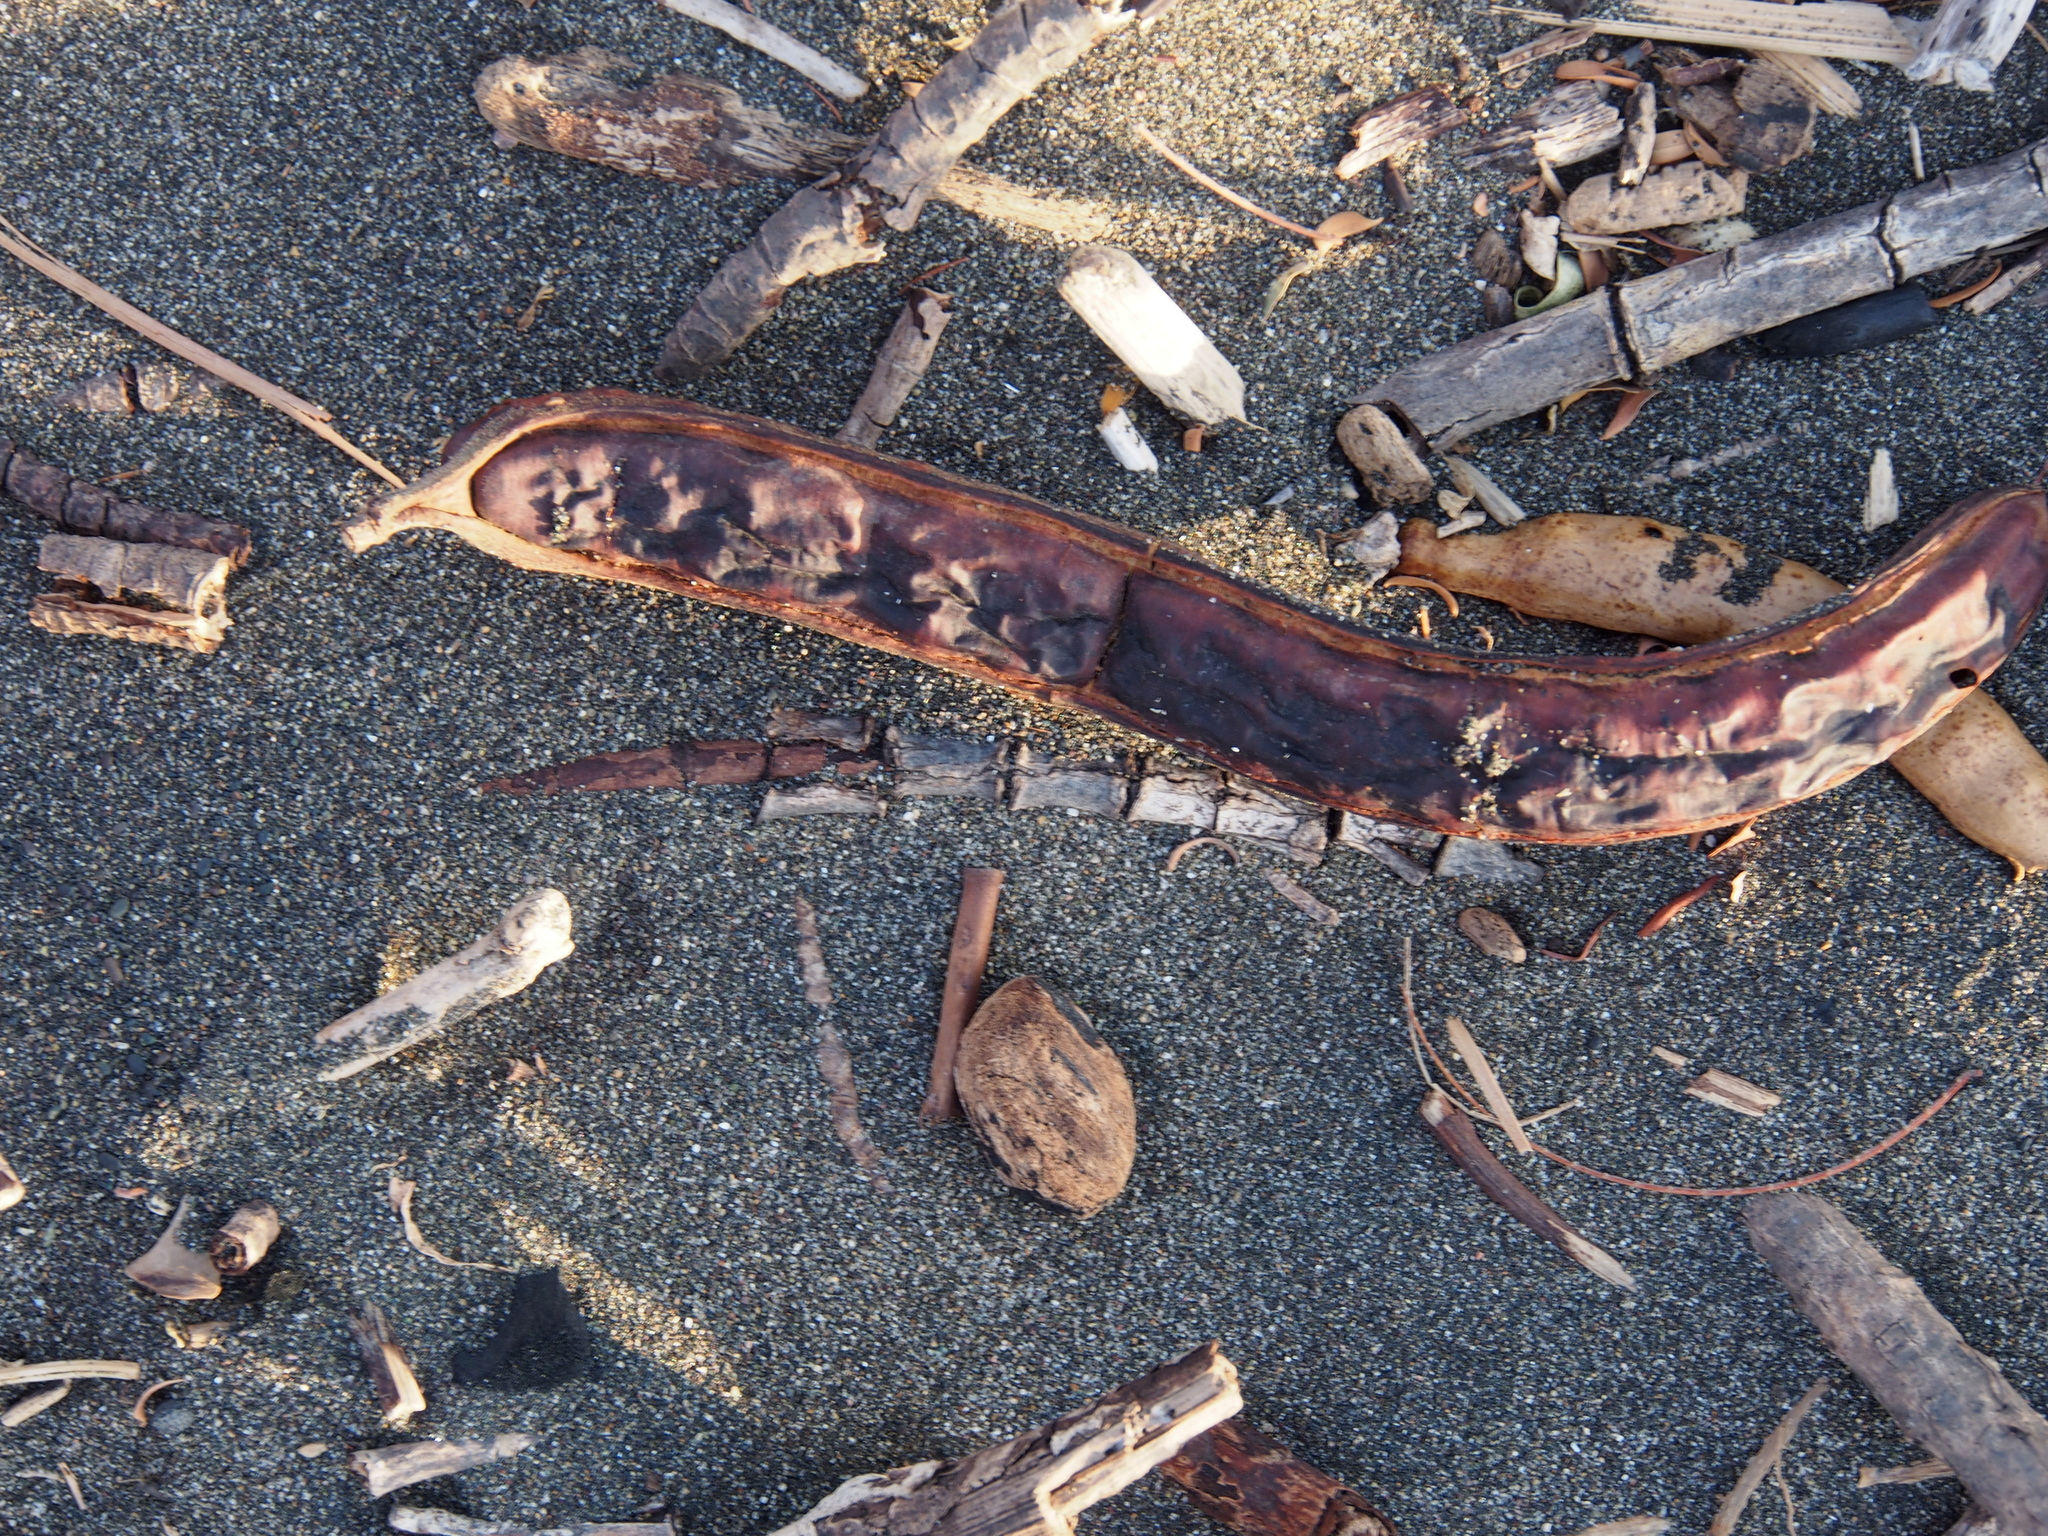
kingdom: Plantae
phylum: Tracheophyta
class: Magnoliopsida
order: Fabales
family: Fabaceae
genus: Samanea
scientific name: Samanea saman
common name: Raintree
